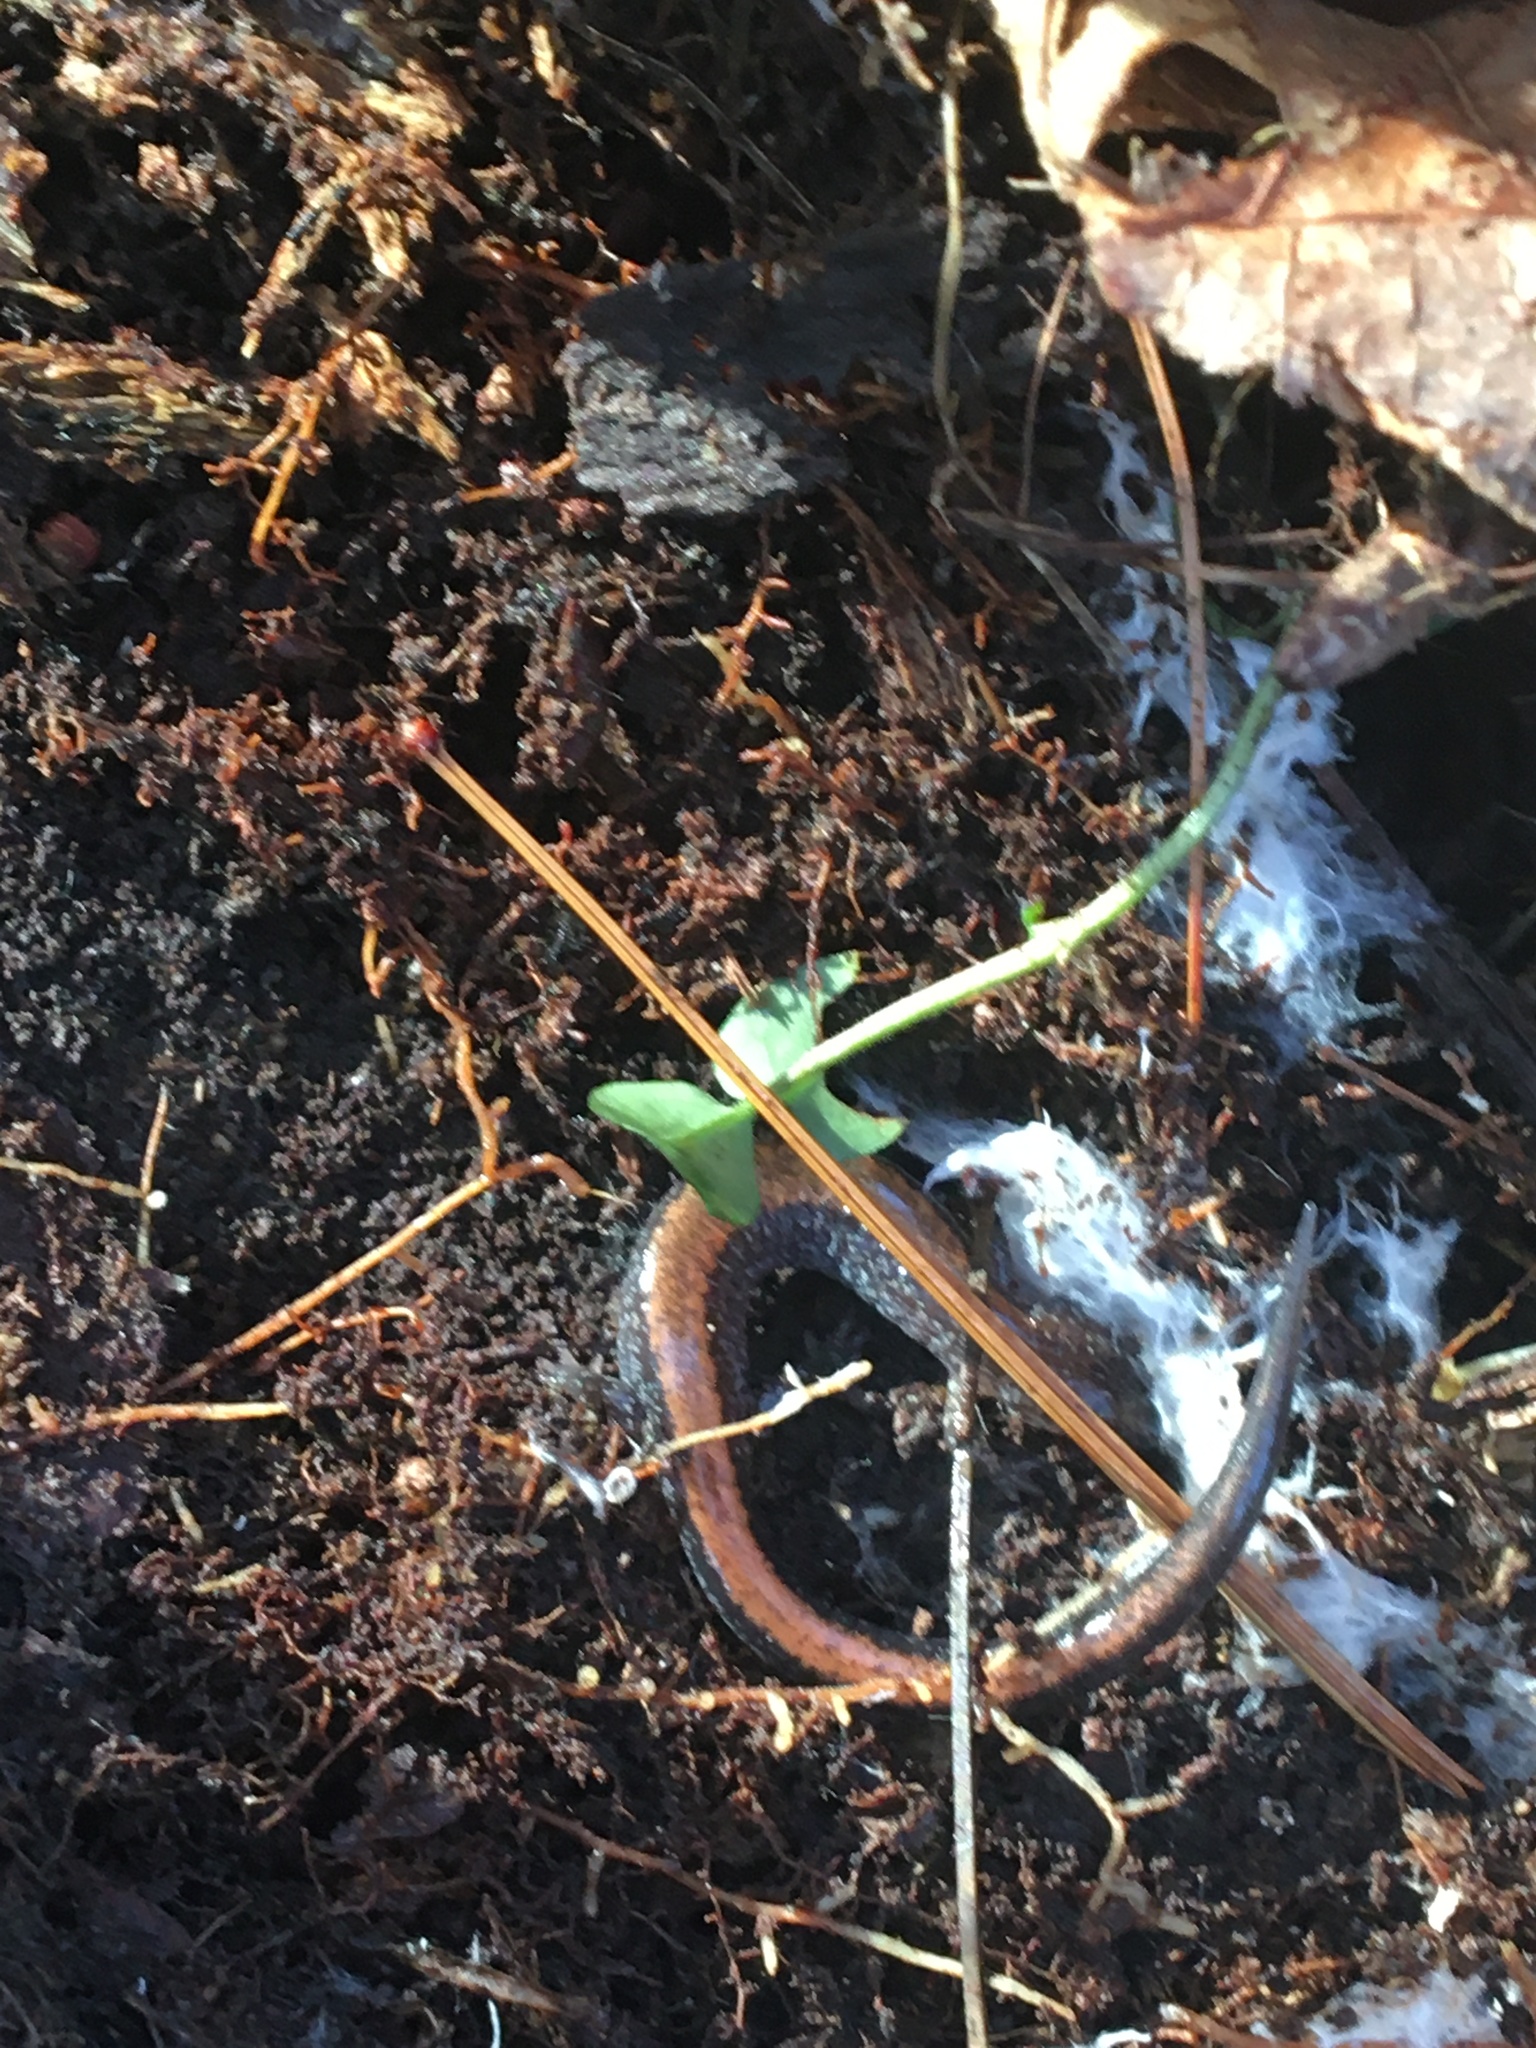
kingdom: Animalia
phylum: Chordata
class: Amphibia
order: Caudata
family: Plethodontidae
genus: Plethodon
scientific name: Plethodon cinereus
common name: Redback salamander
